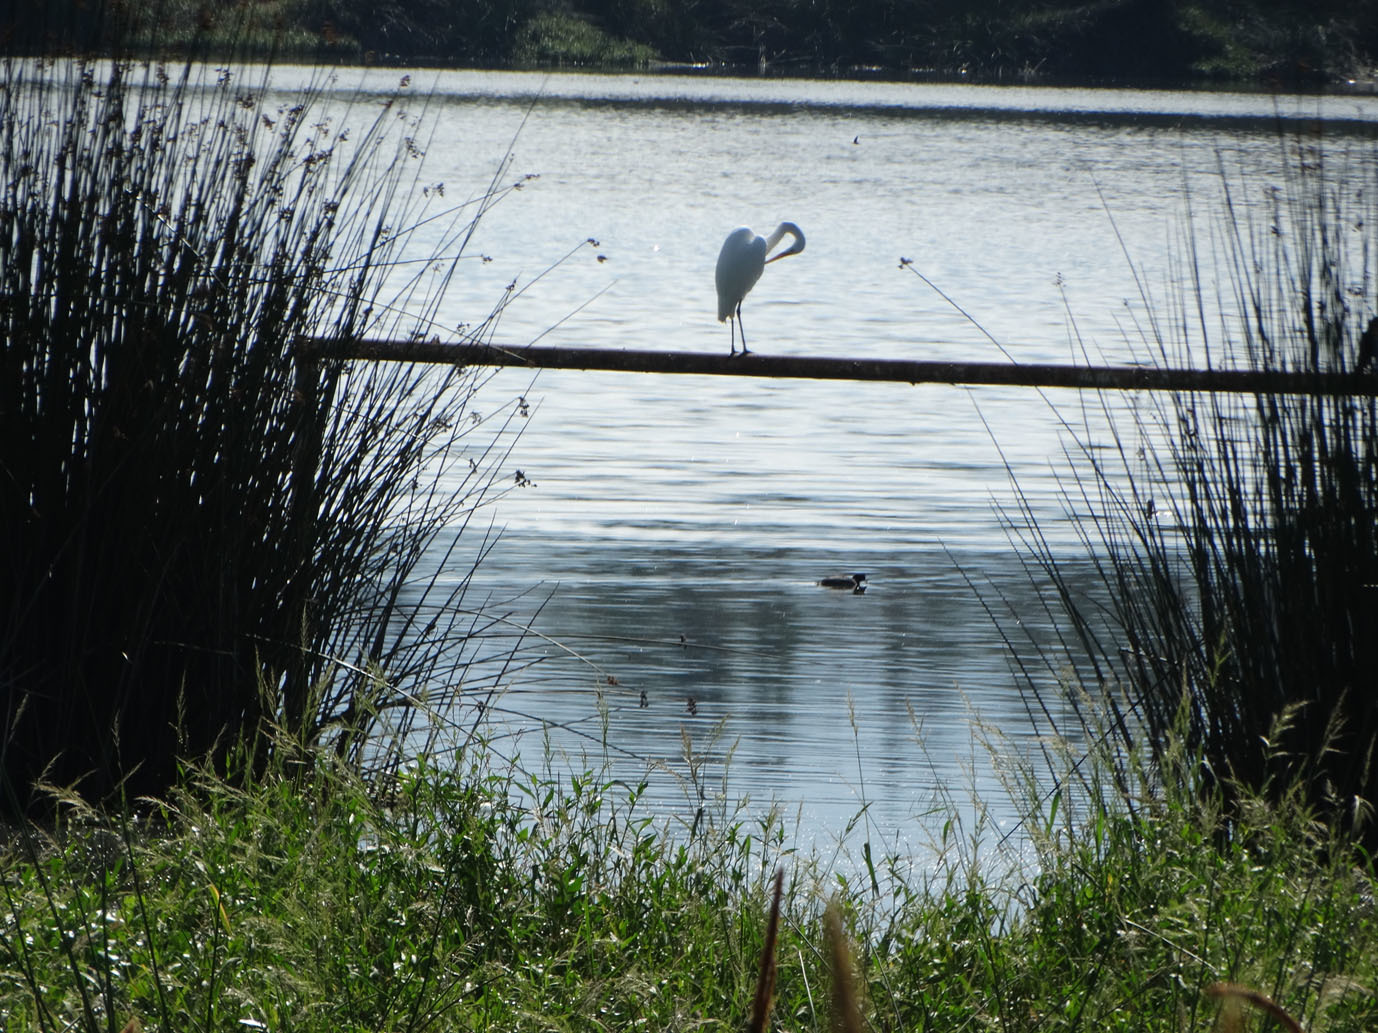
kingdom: Animalia
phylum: Chordata
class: Aves
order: Pelecaniformes
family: Ardeidae
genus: Ardea
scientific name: Ardea alba
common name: Great egret
